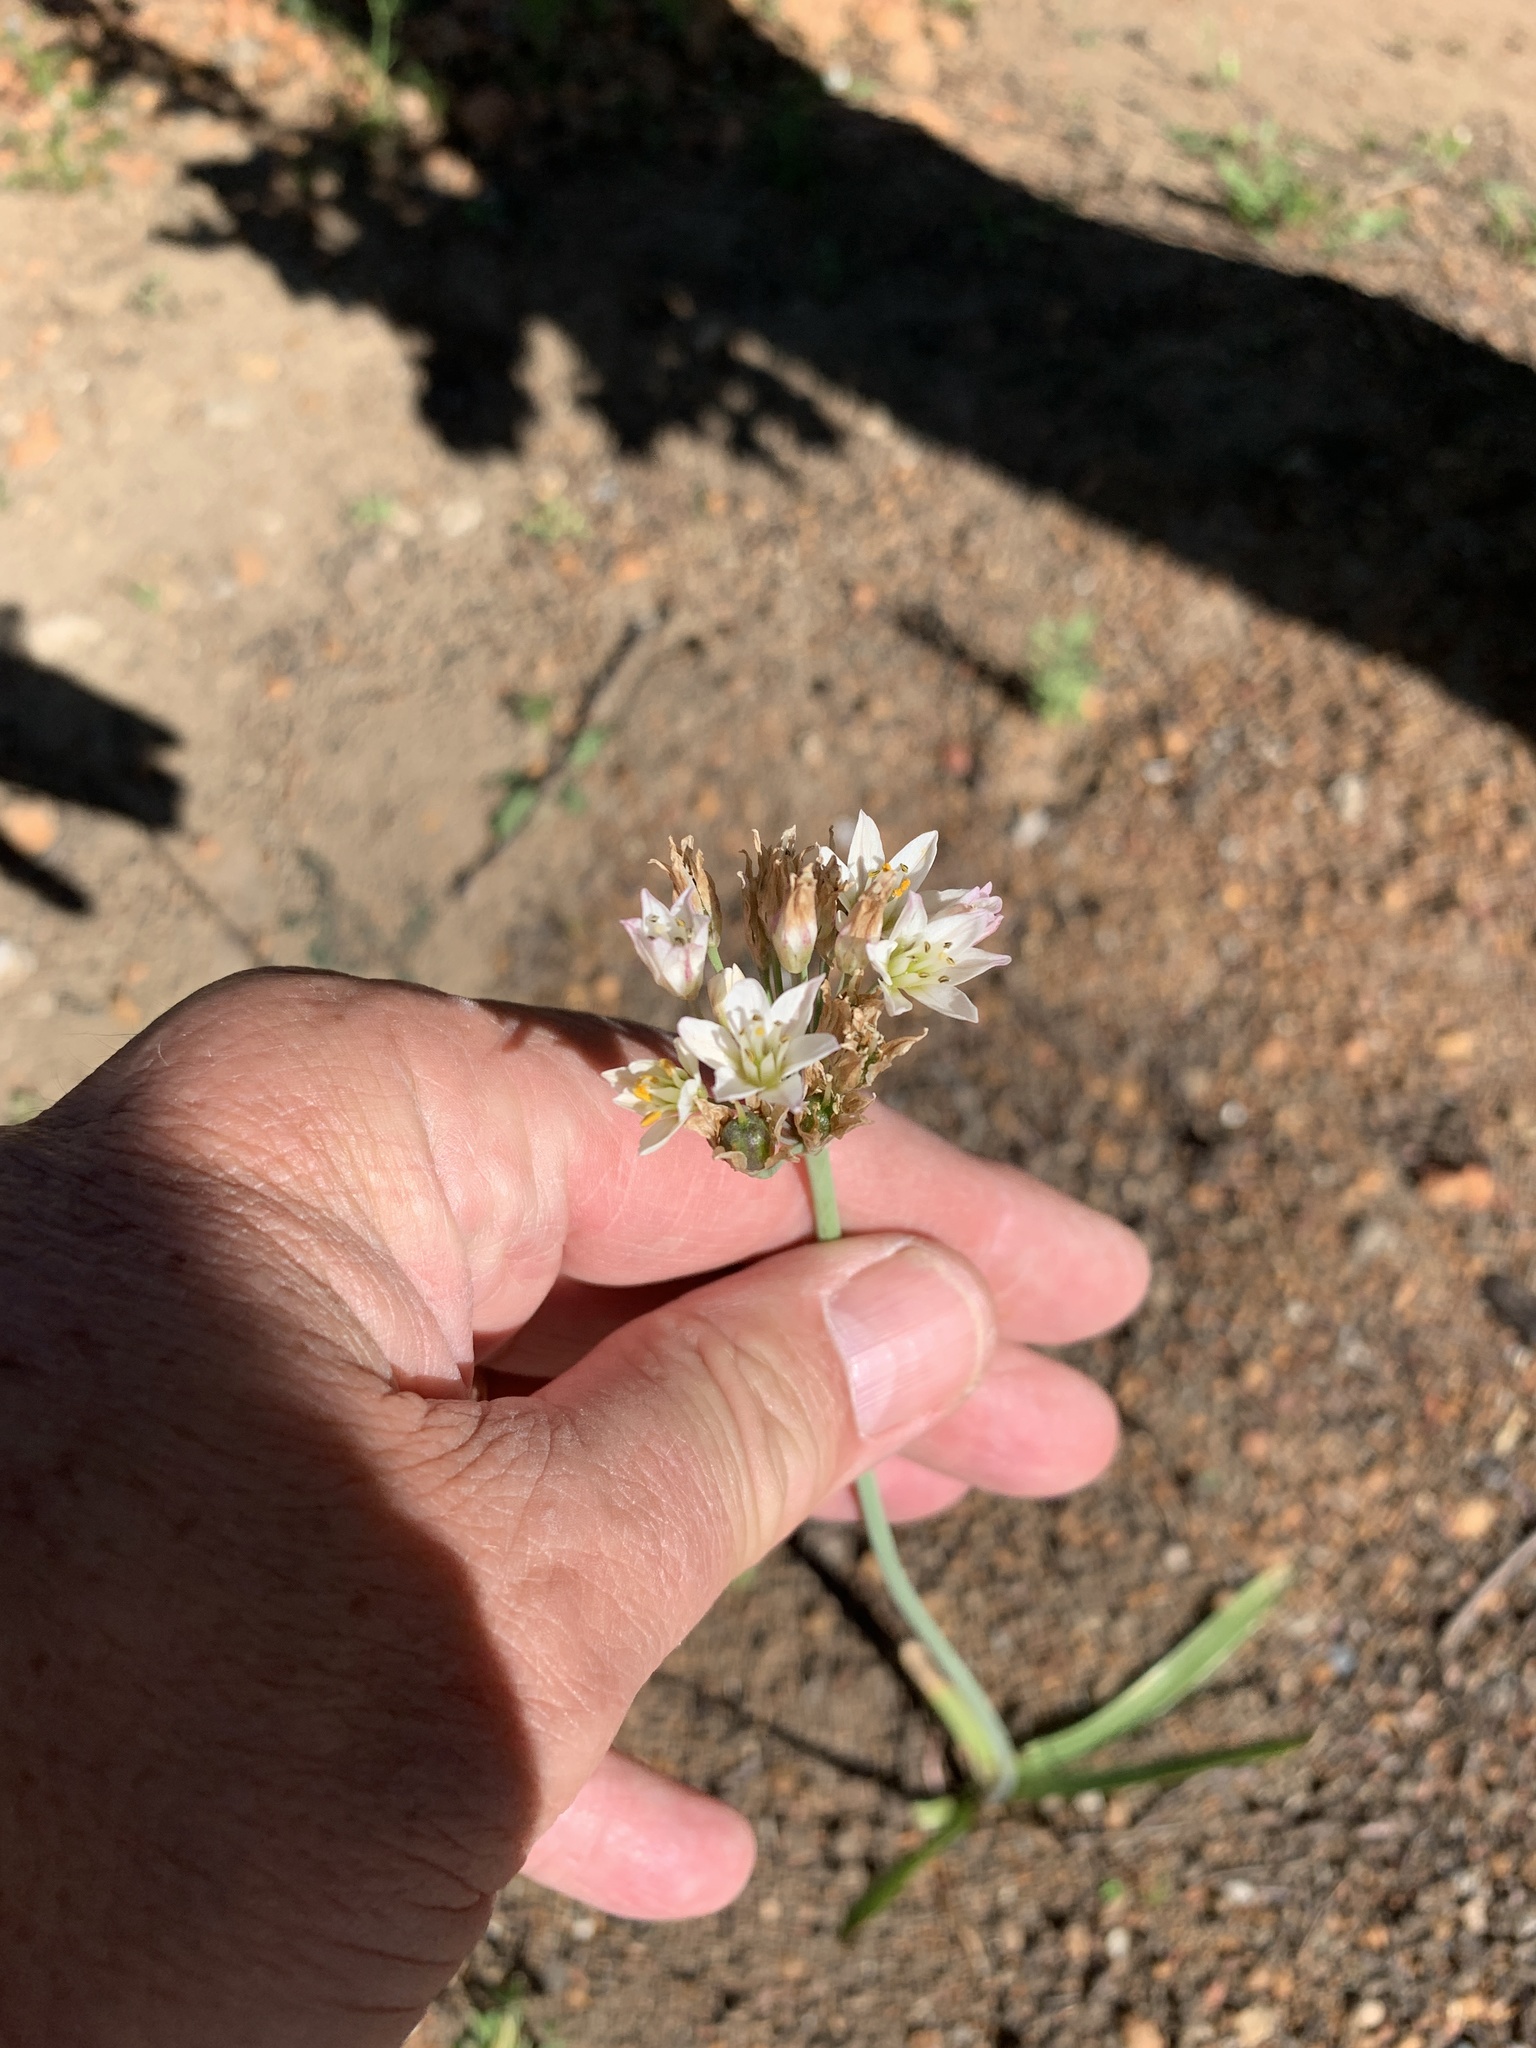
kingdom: Plantae
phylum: Tracheophyta
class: Liliopsida
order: Asparagales
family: Amaryllidaceae
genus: Nothoscordum
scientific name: Nothoscordum gracile
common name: Slender false garlic
